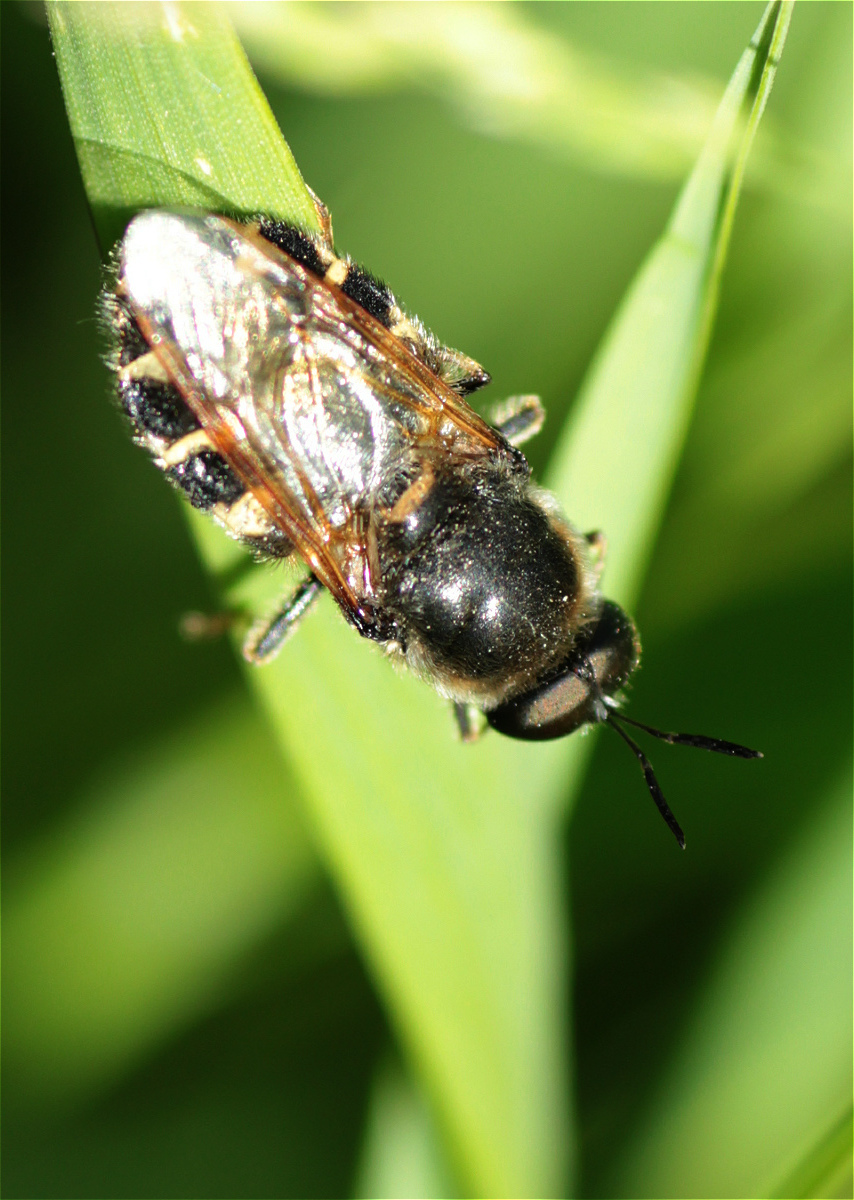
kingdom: Animalia
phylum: Arthropoda
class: Insecta
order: Diptera
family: Stratiomyidae
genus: Stratiomys
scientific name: Stratiomys singularior
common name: Flecked general
